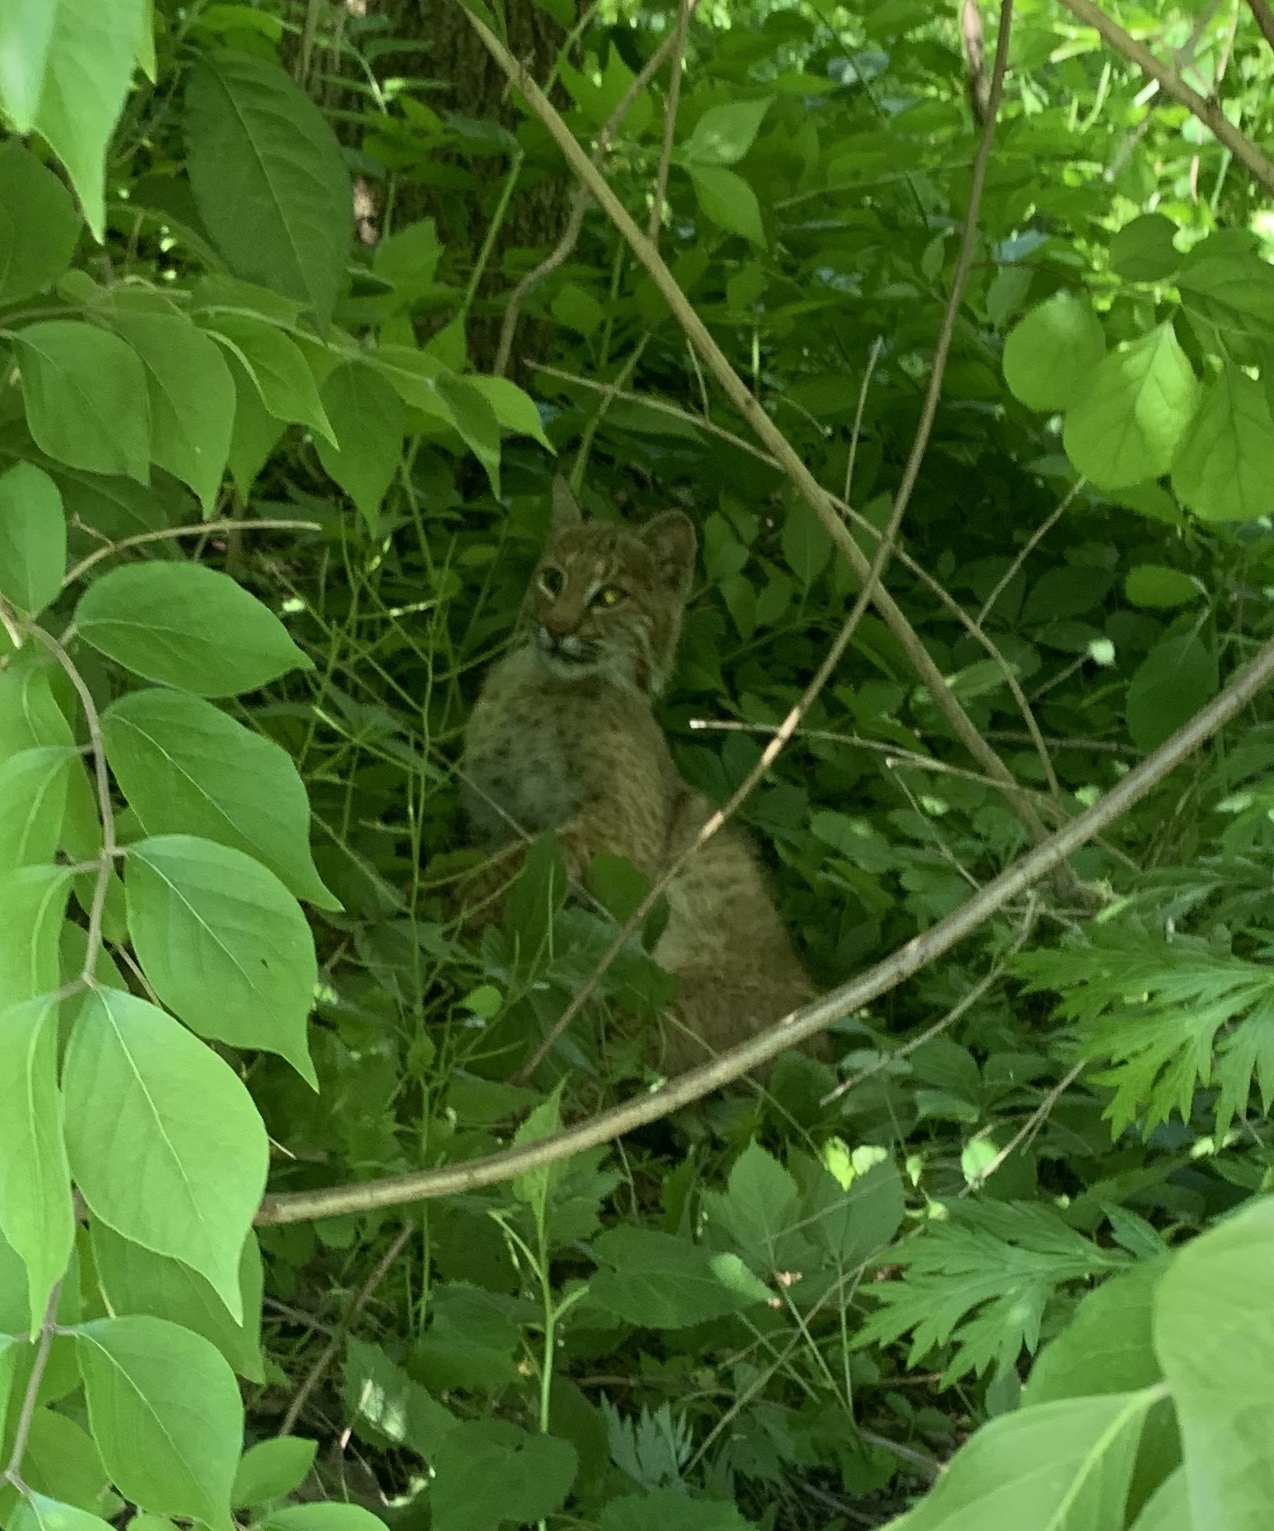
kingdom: Animalia
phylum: Chordata
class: Mammalia
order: Carnivora
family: Felidae
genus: Lynx
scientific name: Lynx rufus
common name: Bobcat
